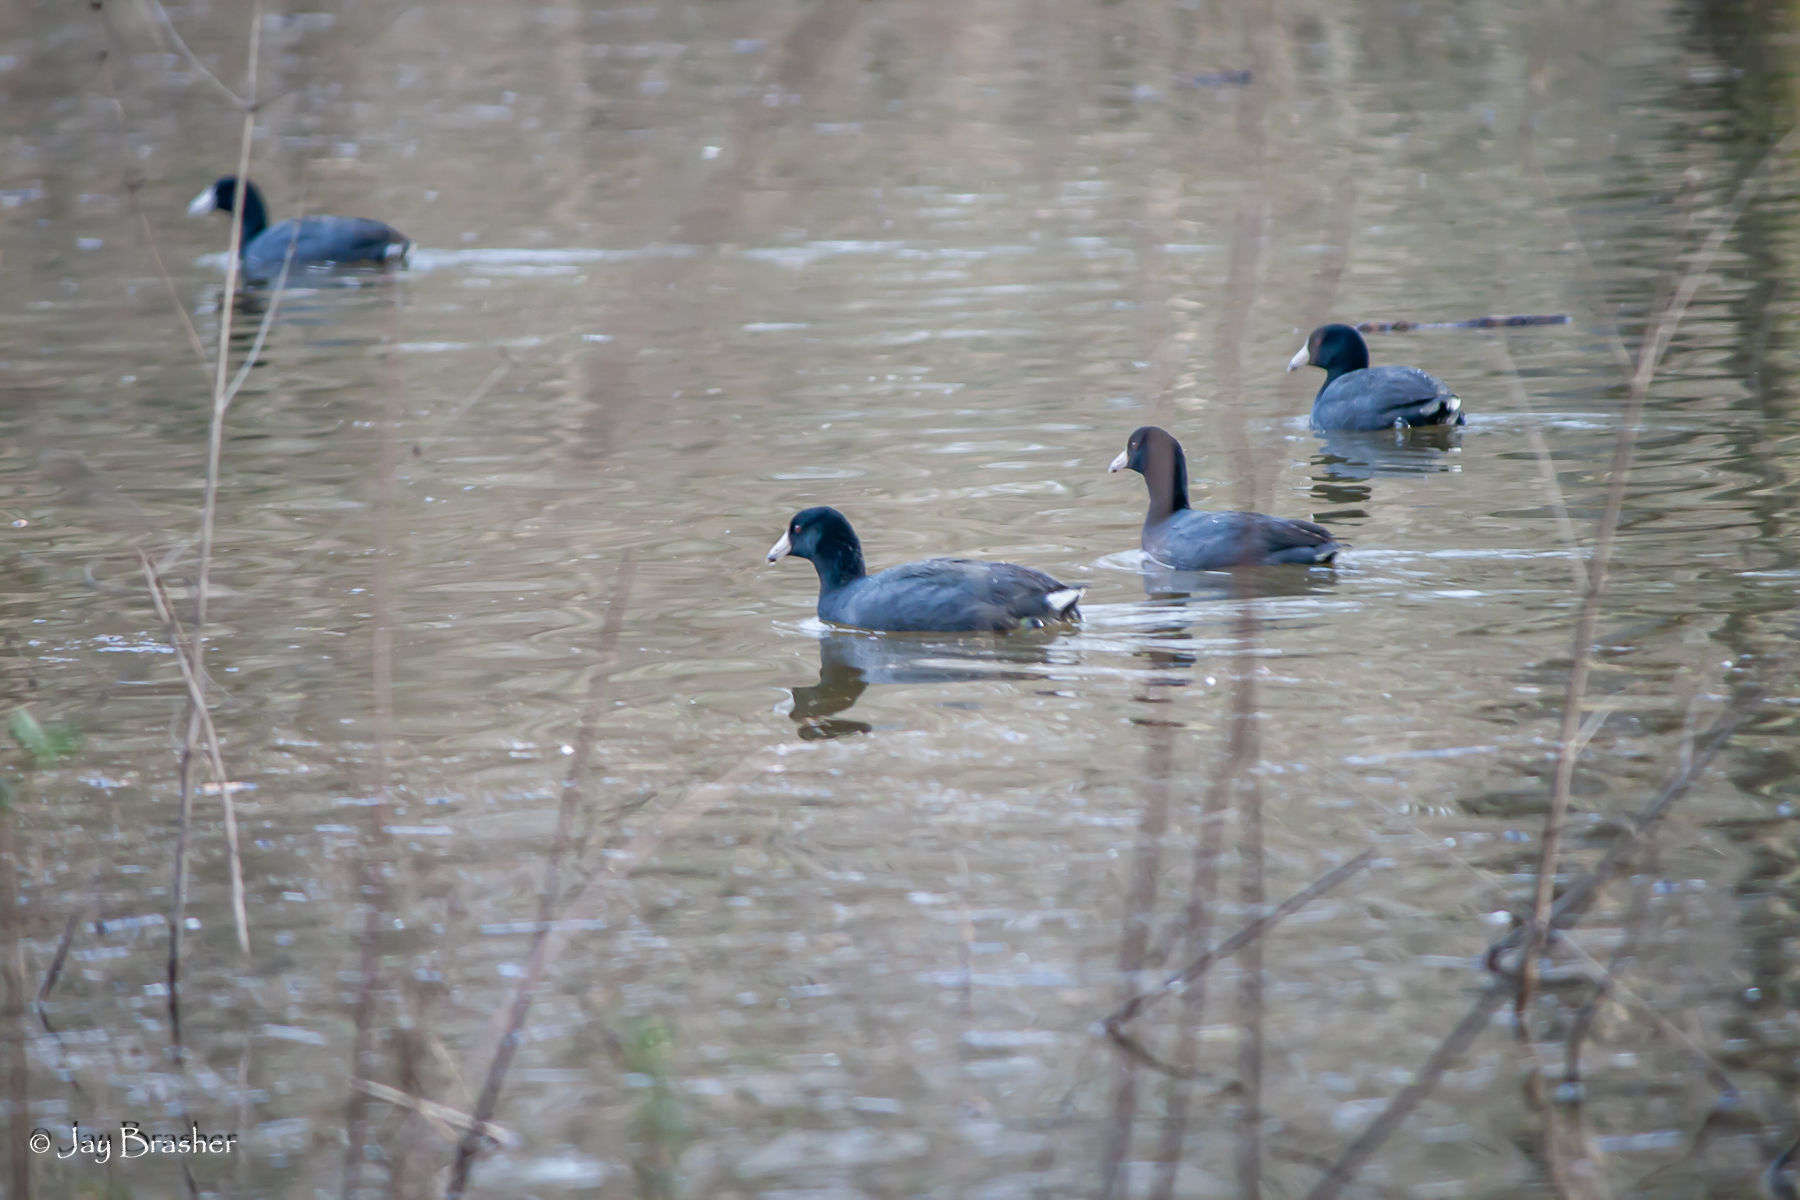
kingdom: Animalia
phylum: Chordata
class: Aves
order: Gruiformes
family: Rallidae
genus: Fulica
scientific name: Fulica americana
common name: American coot
